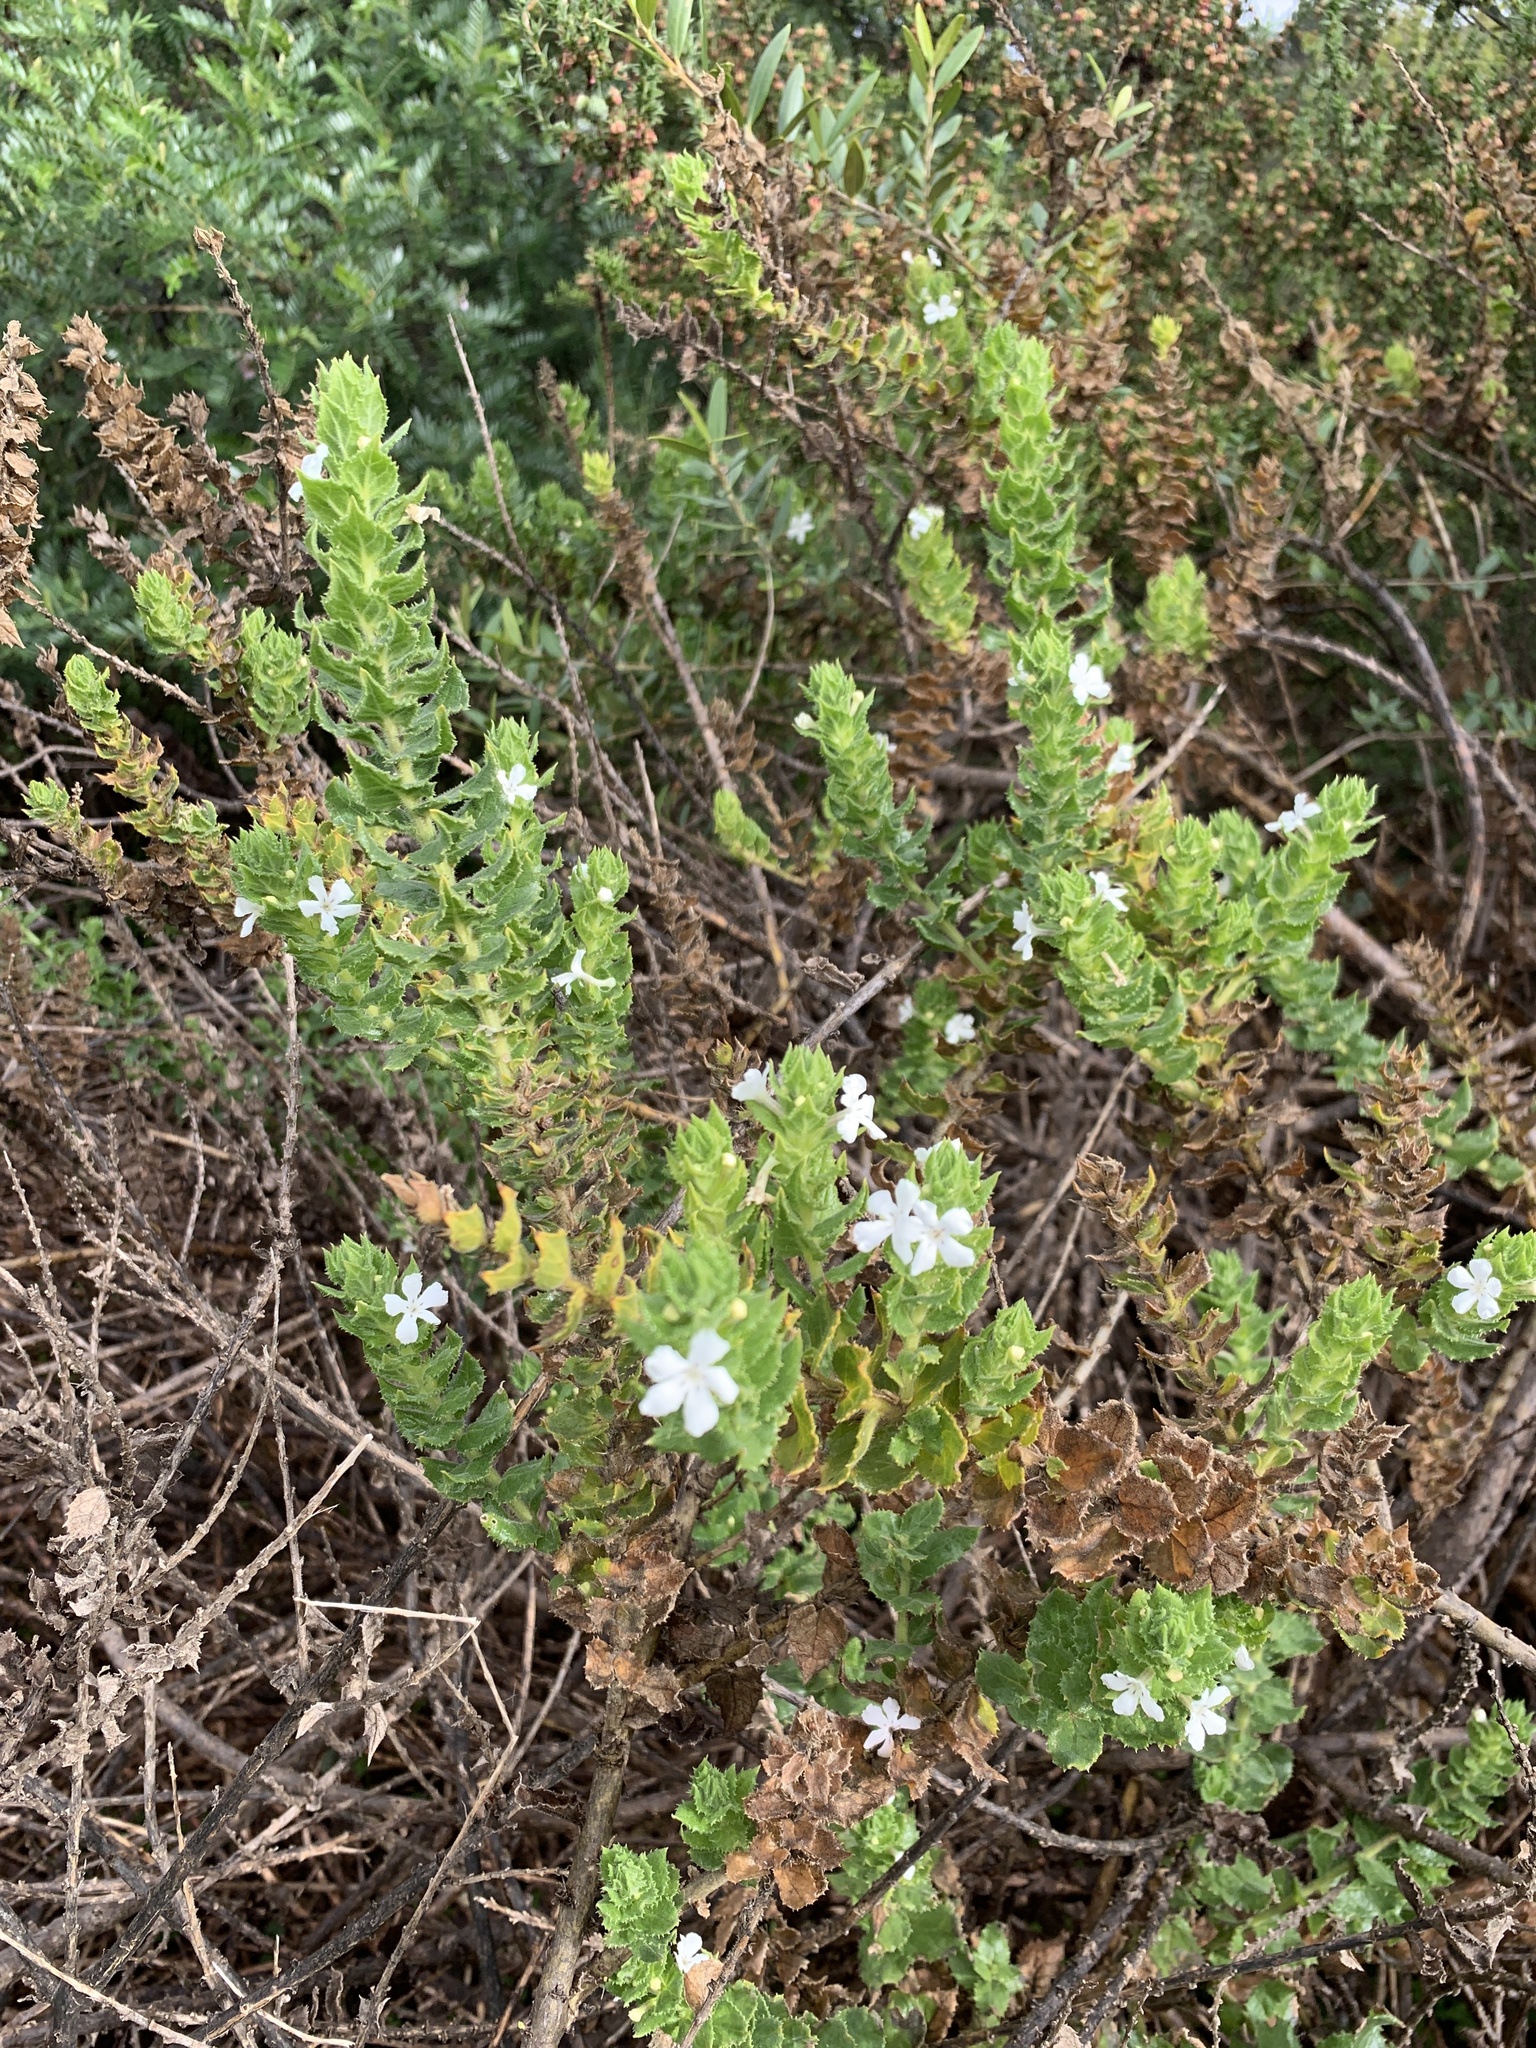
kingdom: Plantae
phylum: Tracheophyta
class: Magnoliopsida
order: Lamiales
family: Scrophulariaceae
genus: Oftia
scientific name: Oftia africana
